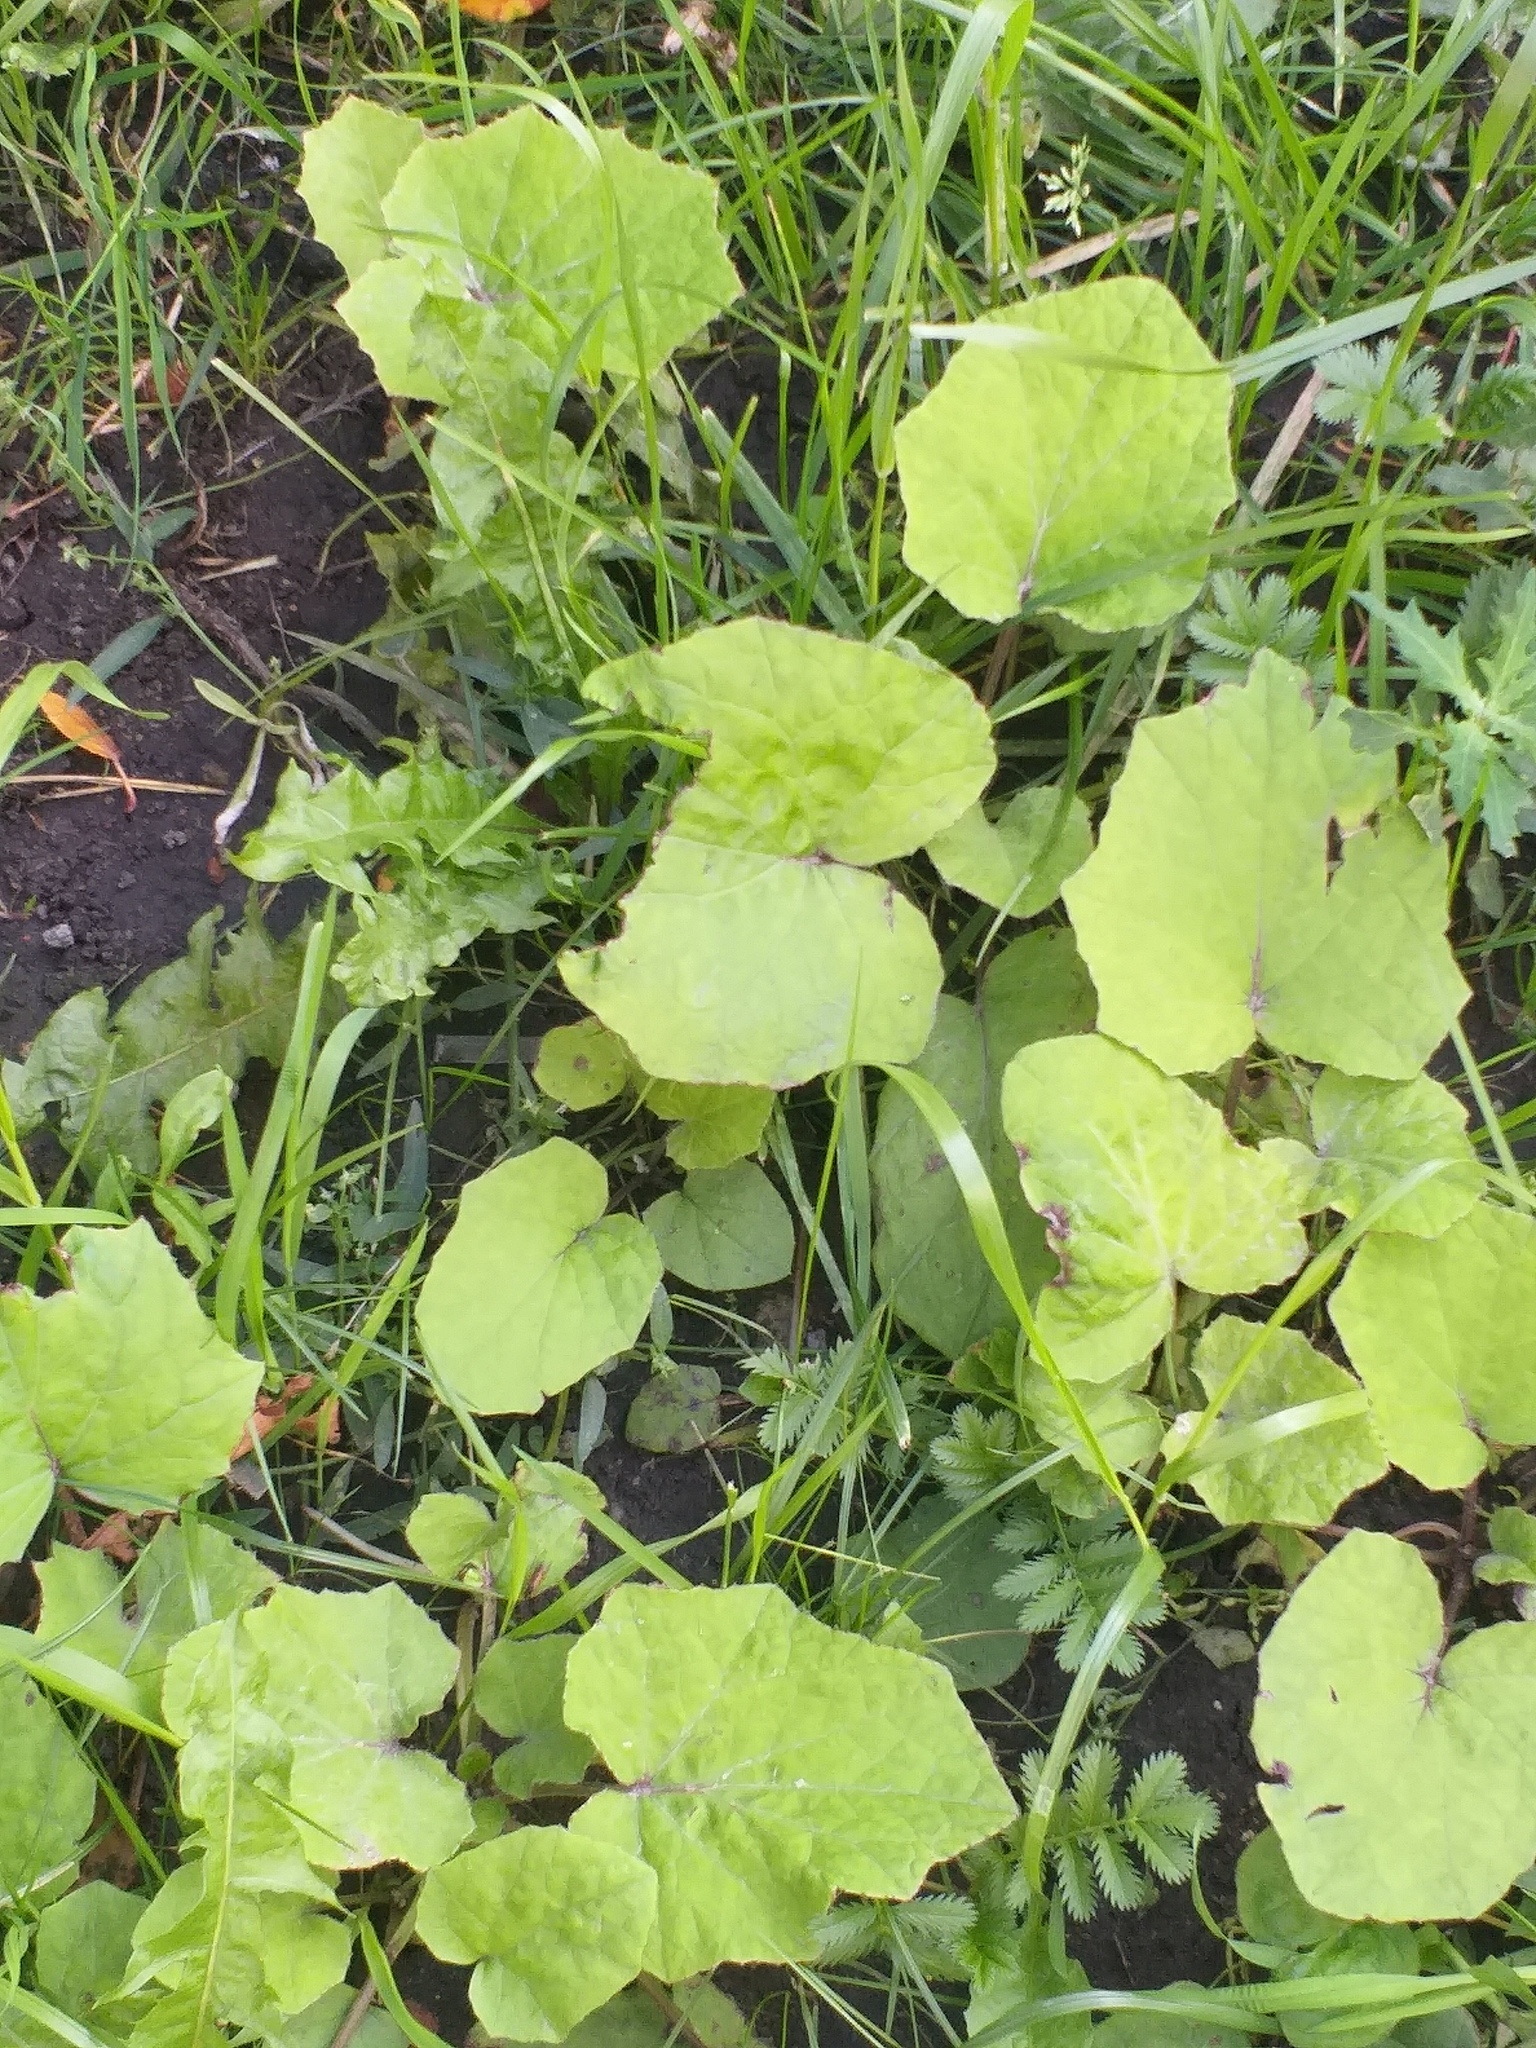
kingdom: Plantae
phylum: Tracheophyta
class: Magnoliopsida
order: Asterales
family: Asteraceae
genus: Tussilago
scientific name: Tussilago farfara
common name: Coltsfoot
